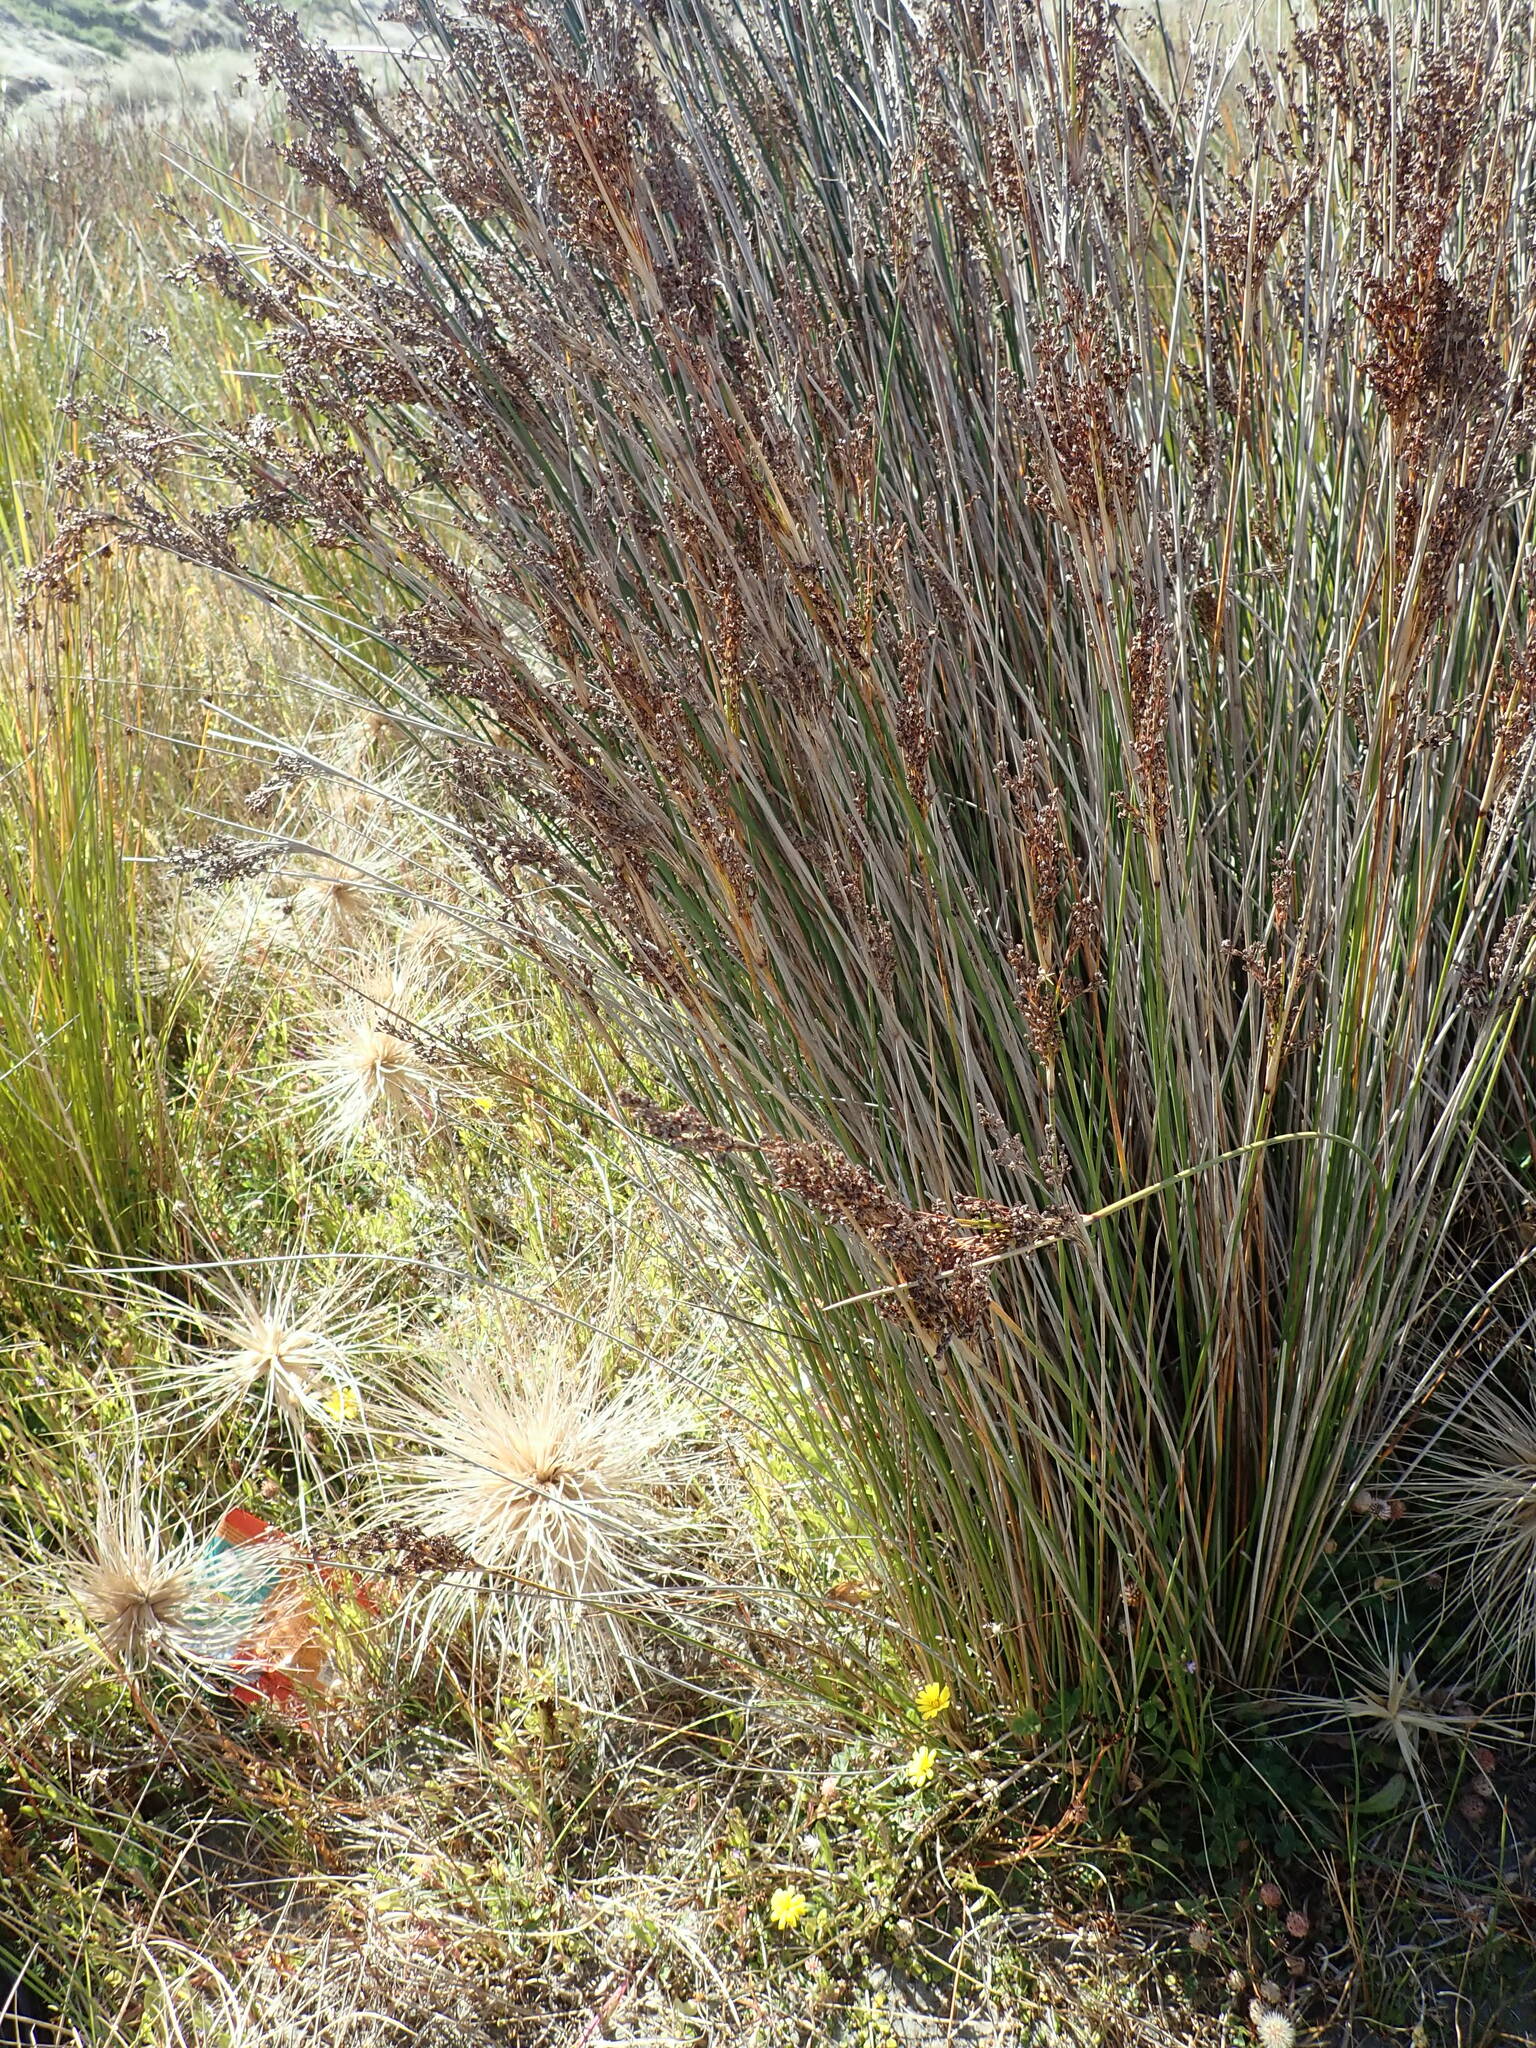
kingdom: Plantae
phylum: Tracheophyta
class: Liliopsida
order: Poales
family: Juncaceae
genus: Juncus
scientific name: Juncus kraussii
